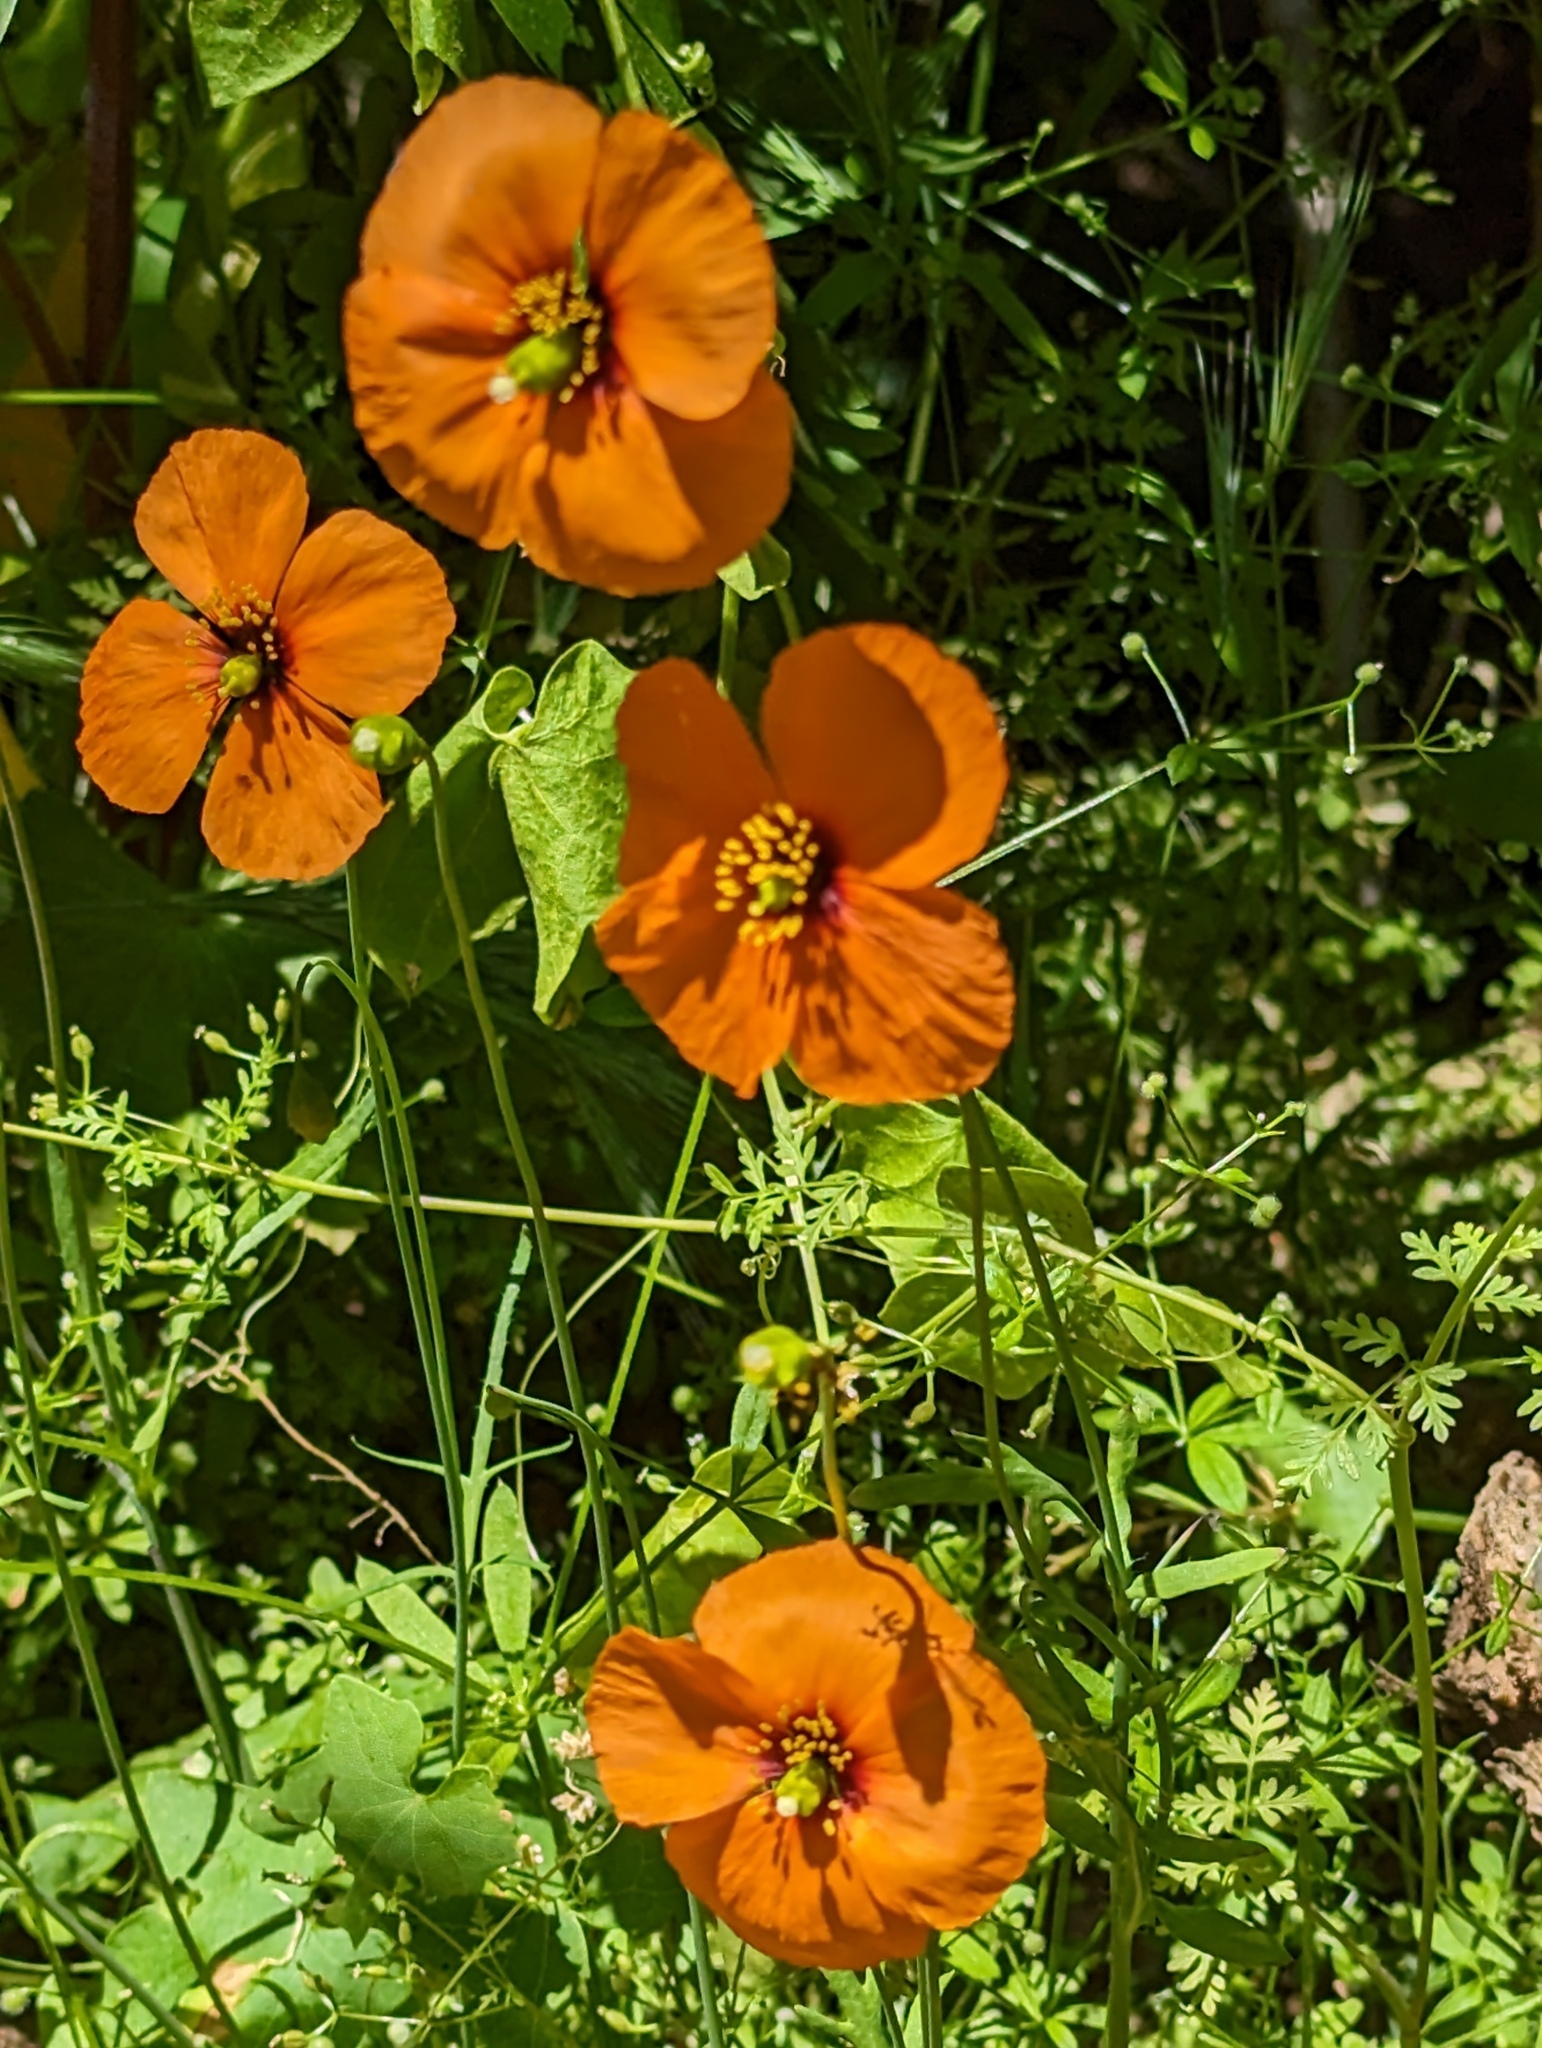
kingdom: Plantae
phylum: Tracheophyta
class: Magnoliopsida
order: Ranunculales
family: Papaveraceae
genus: Stylomecon
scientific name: Stylomecon heterophylla
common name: Flaming-poppy
